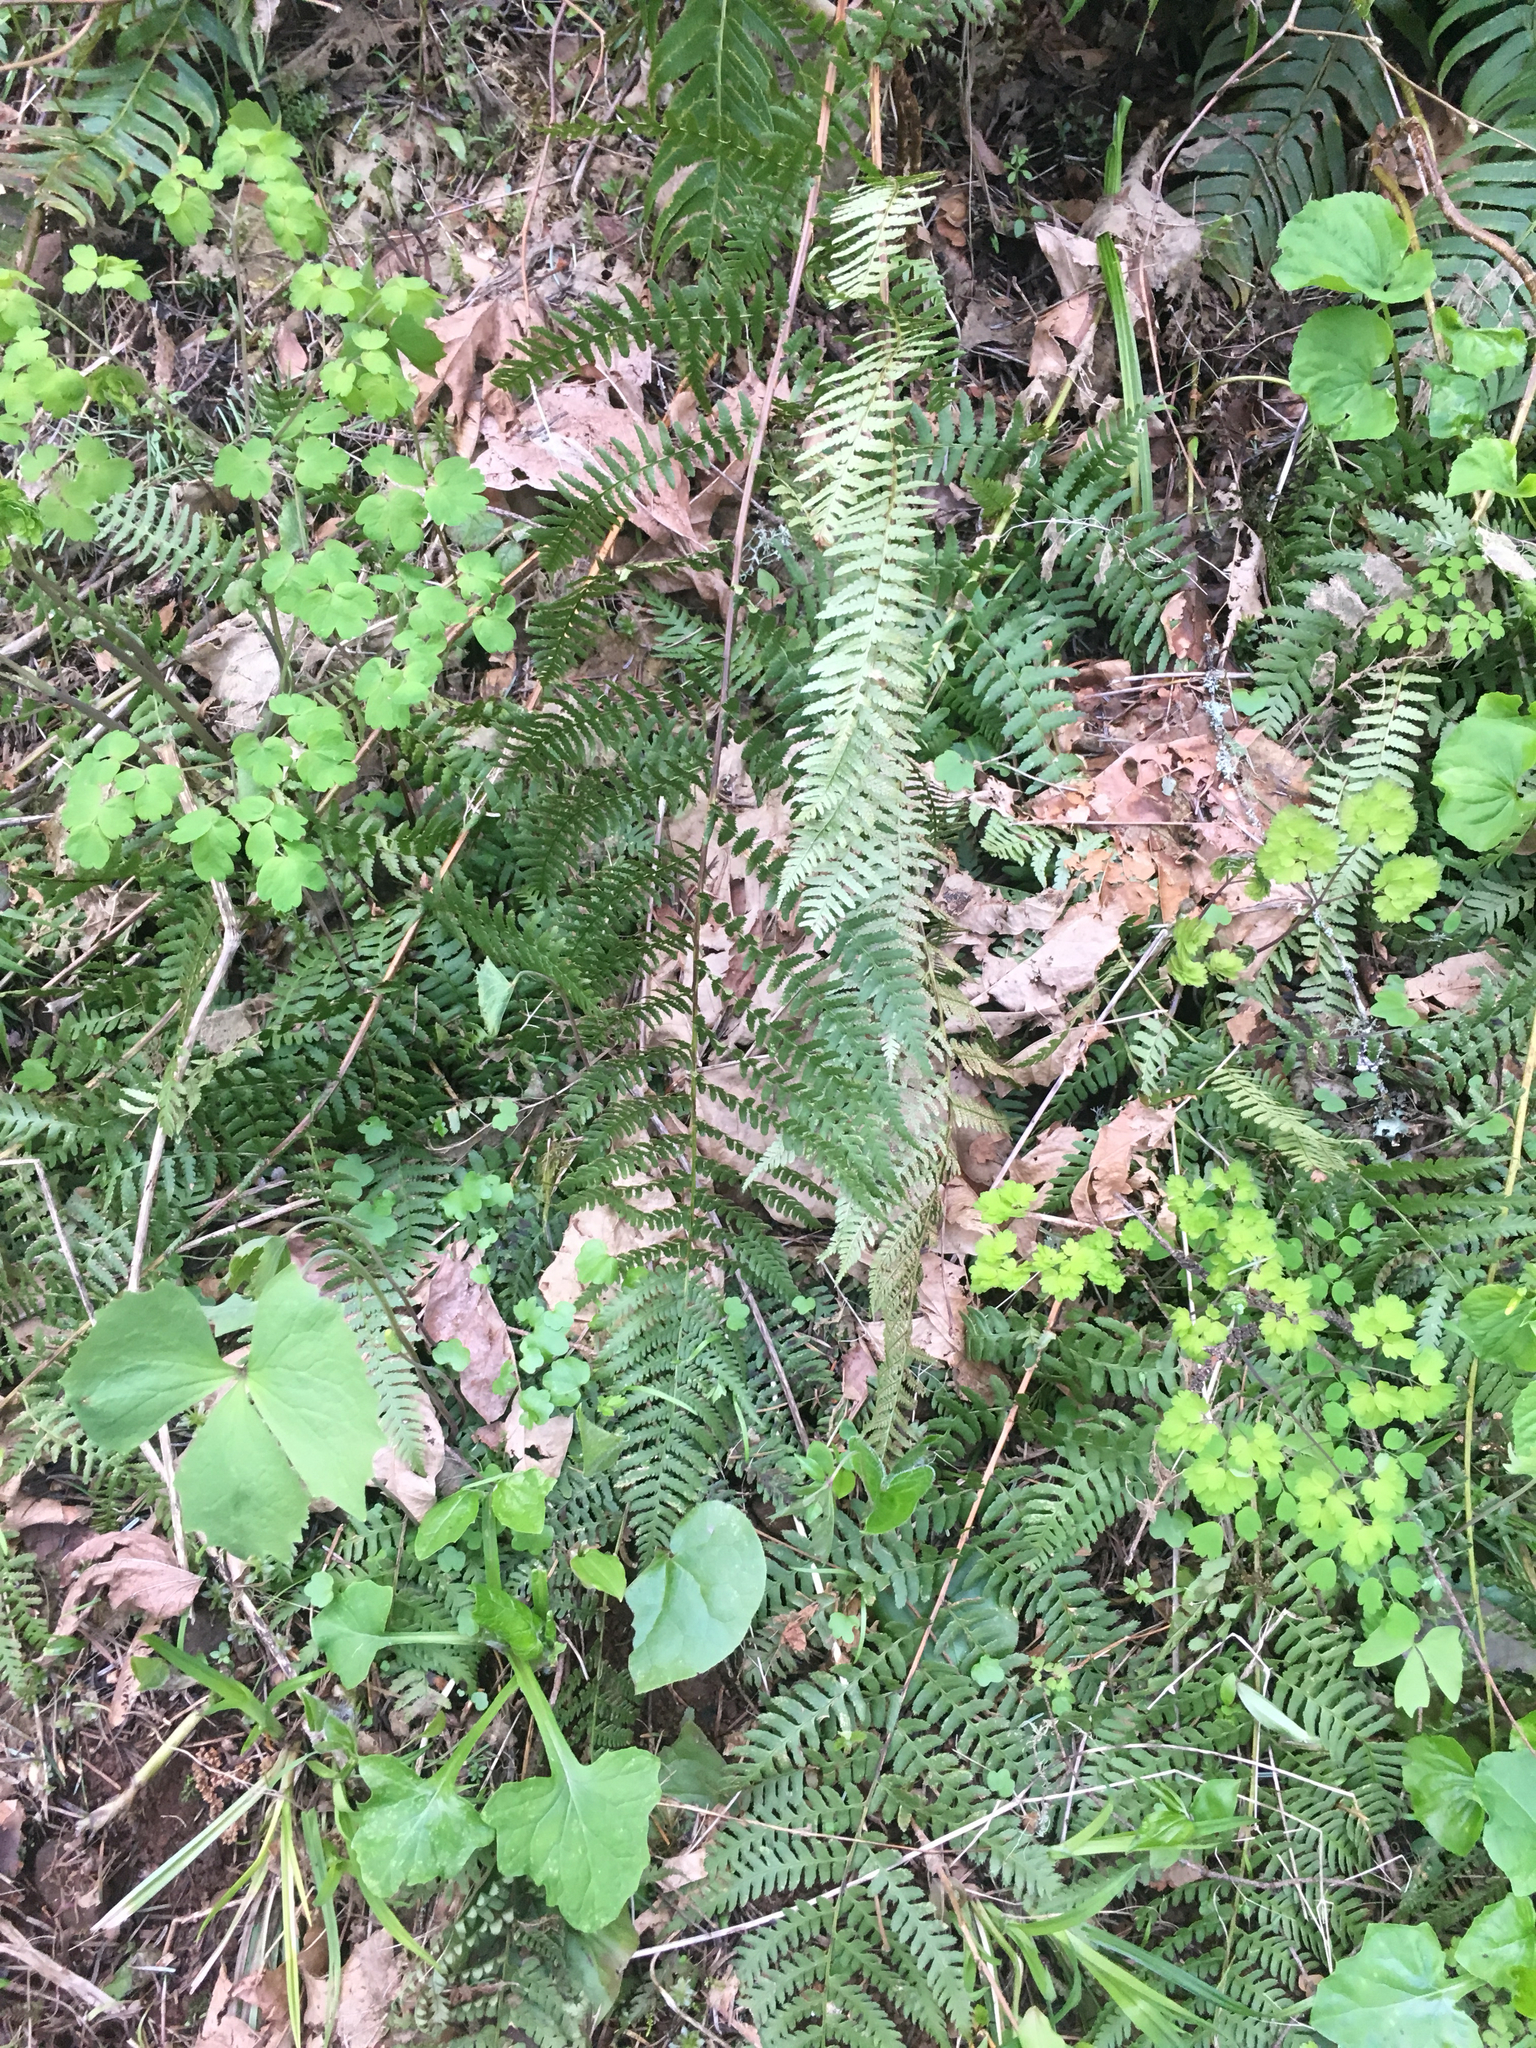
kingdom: Plantae
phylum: Tracheophyta
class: Polypodiopsida
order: Polypodiales
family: Dryopteridaceae
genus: Dryopteris
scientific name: Dryopteris arguta
